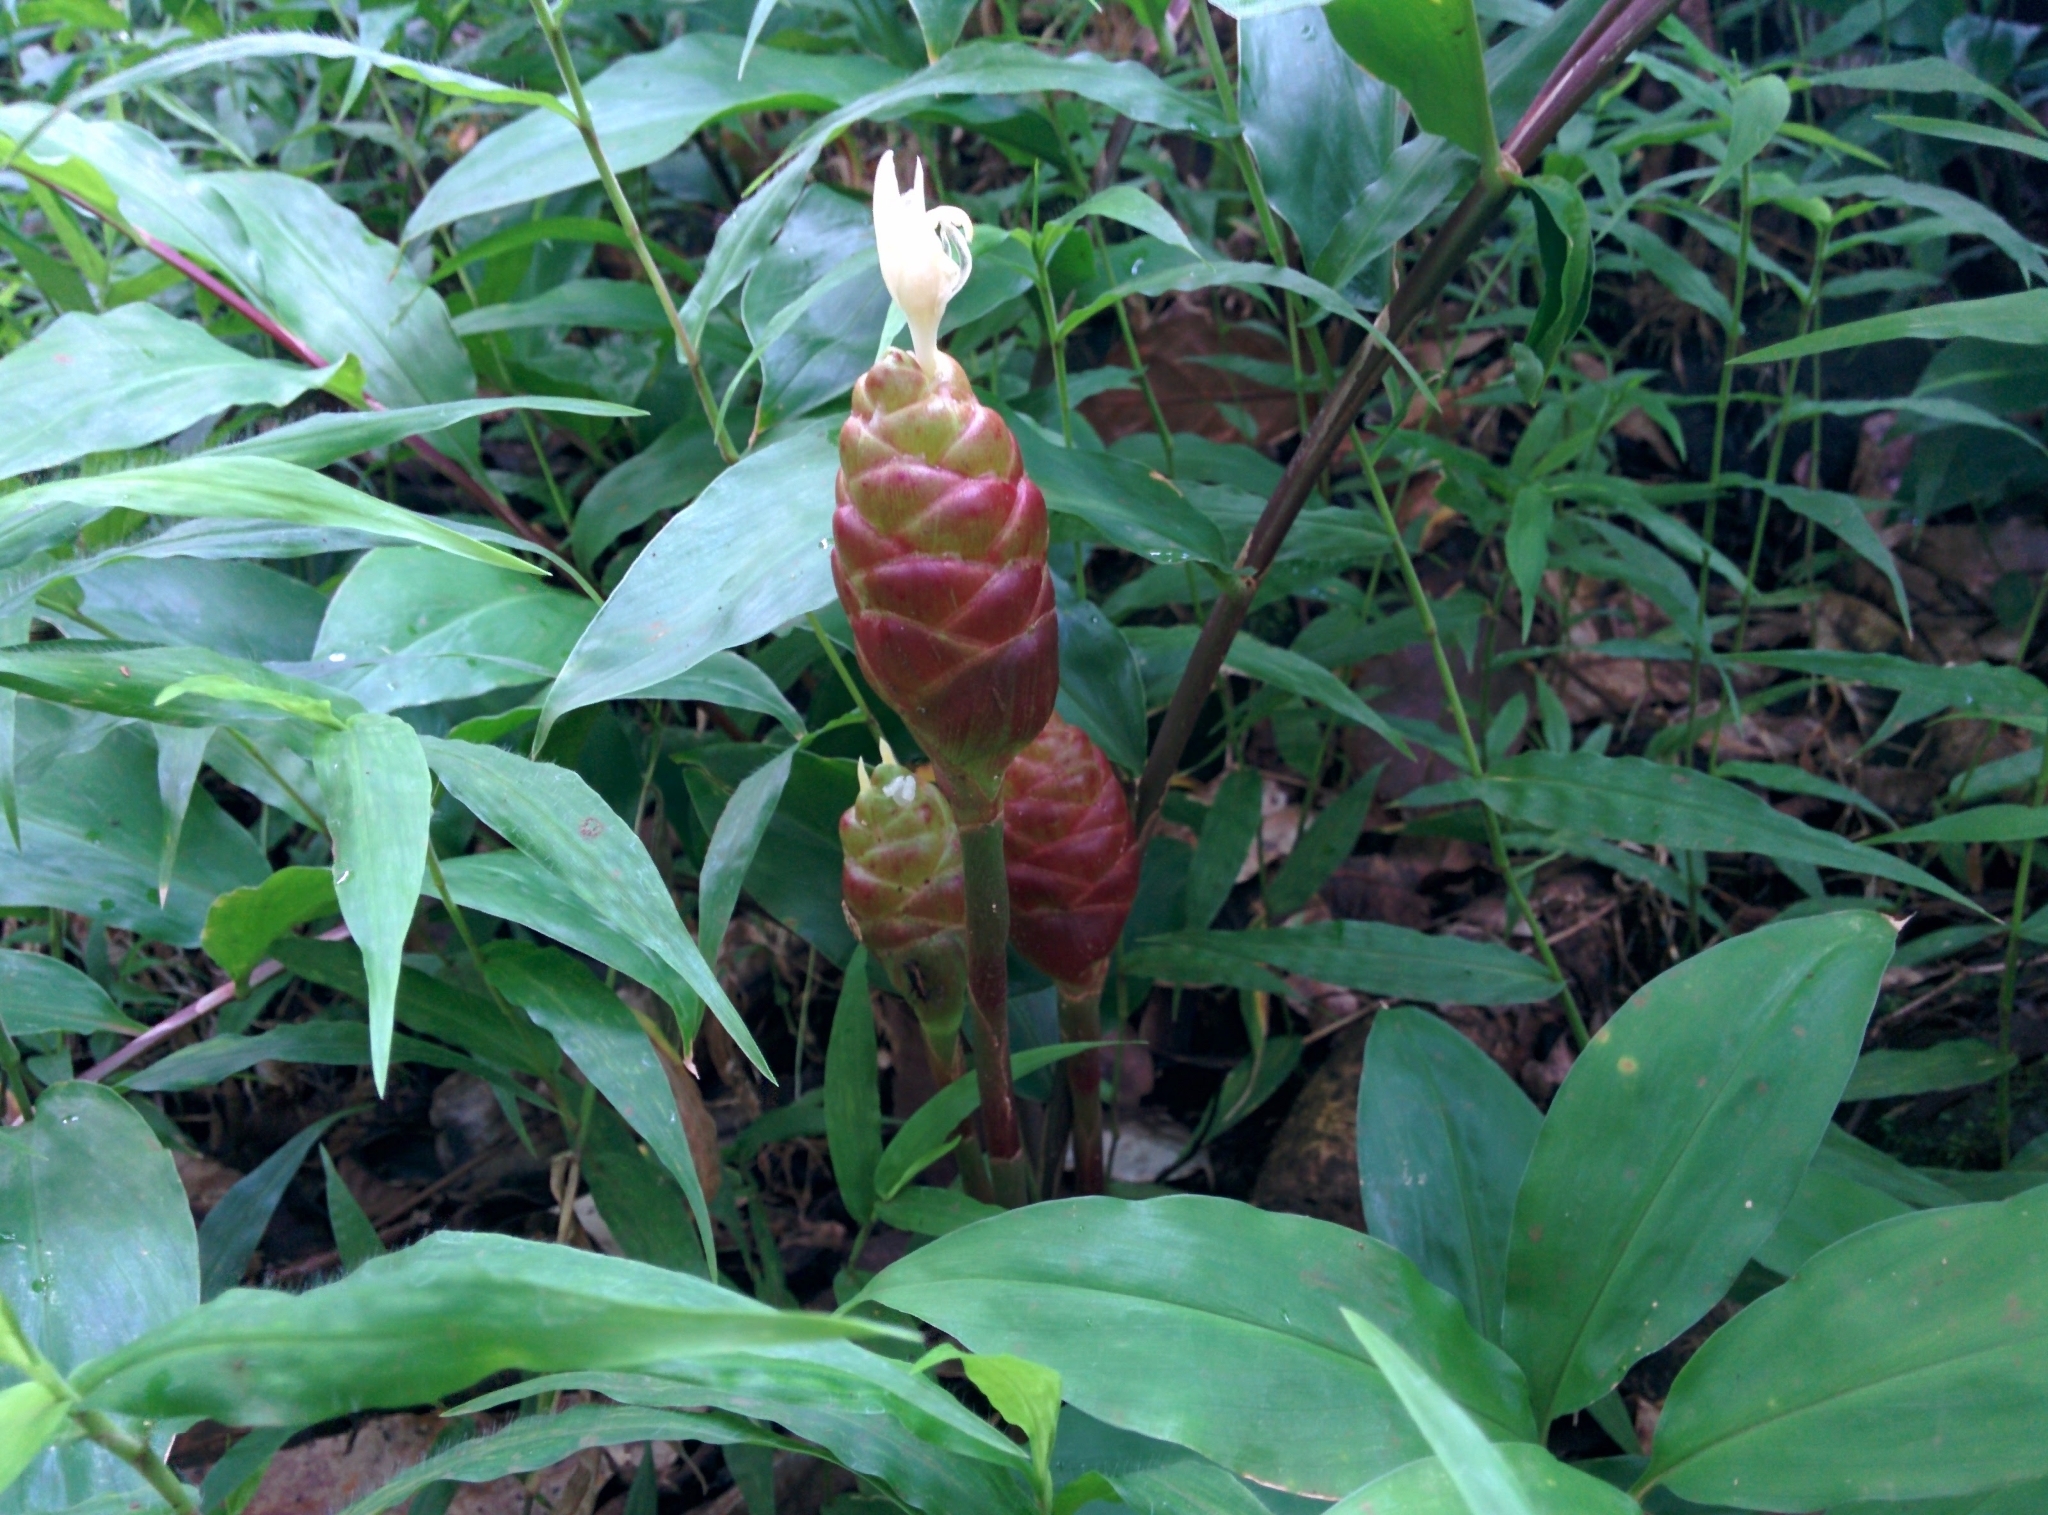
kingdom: Plantae
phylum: Tracheophyta
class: Liliopsida
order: Zingiberales
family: Zingiberaceae
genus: Zingiber
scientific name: Zingiber zerumbet
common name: Bitter ginger
